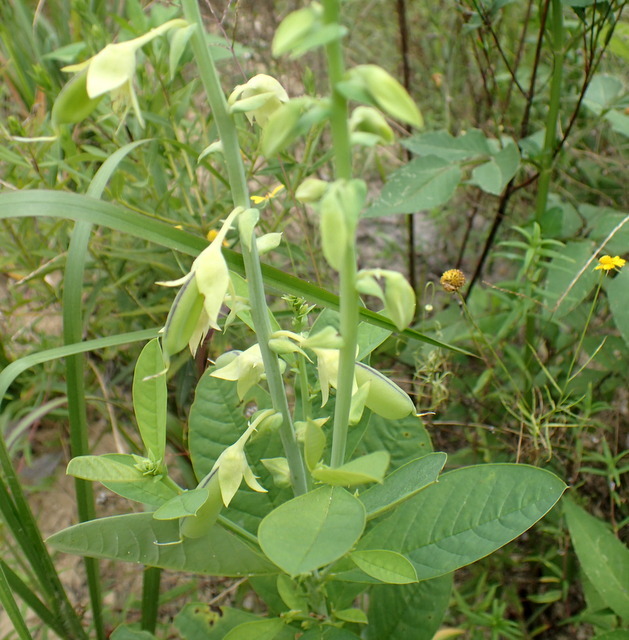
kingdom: Plantae
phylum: Tracheophyta
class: Magnoliopsida
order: Fabales
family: Fabaceae
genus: Crotalaria
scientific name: Crotalaria spectabilis
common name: Showy rattlebox
